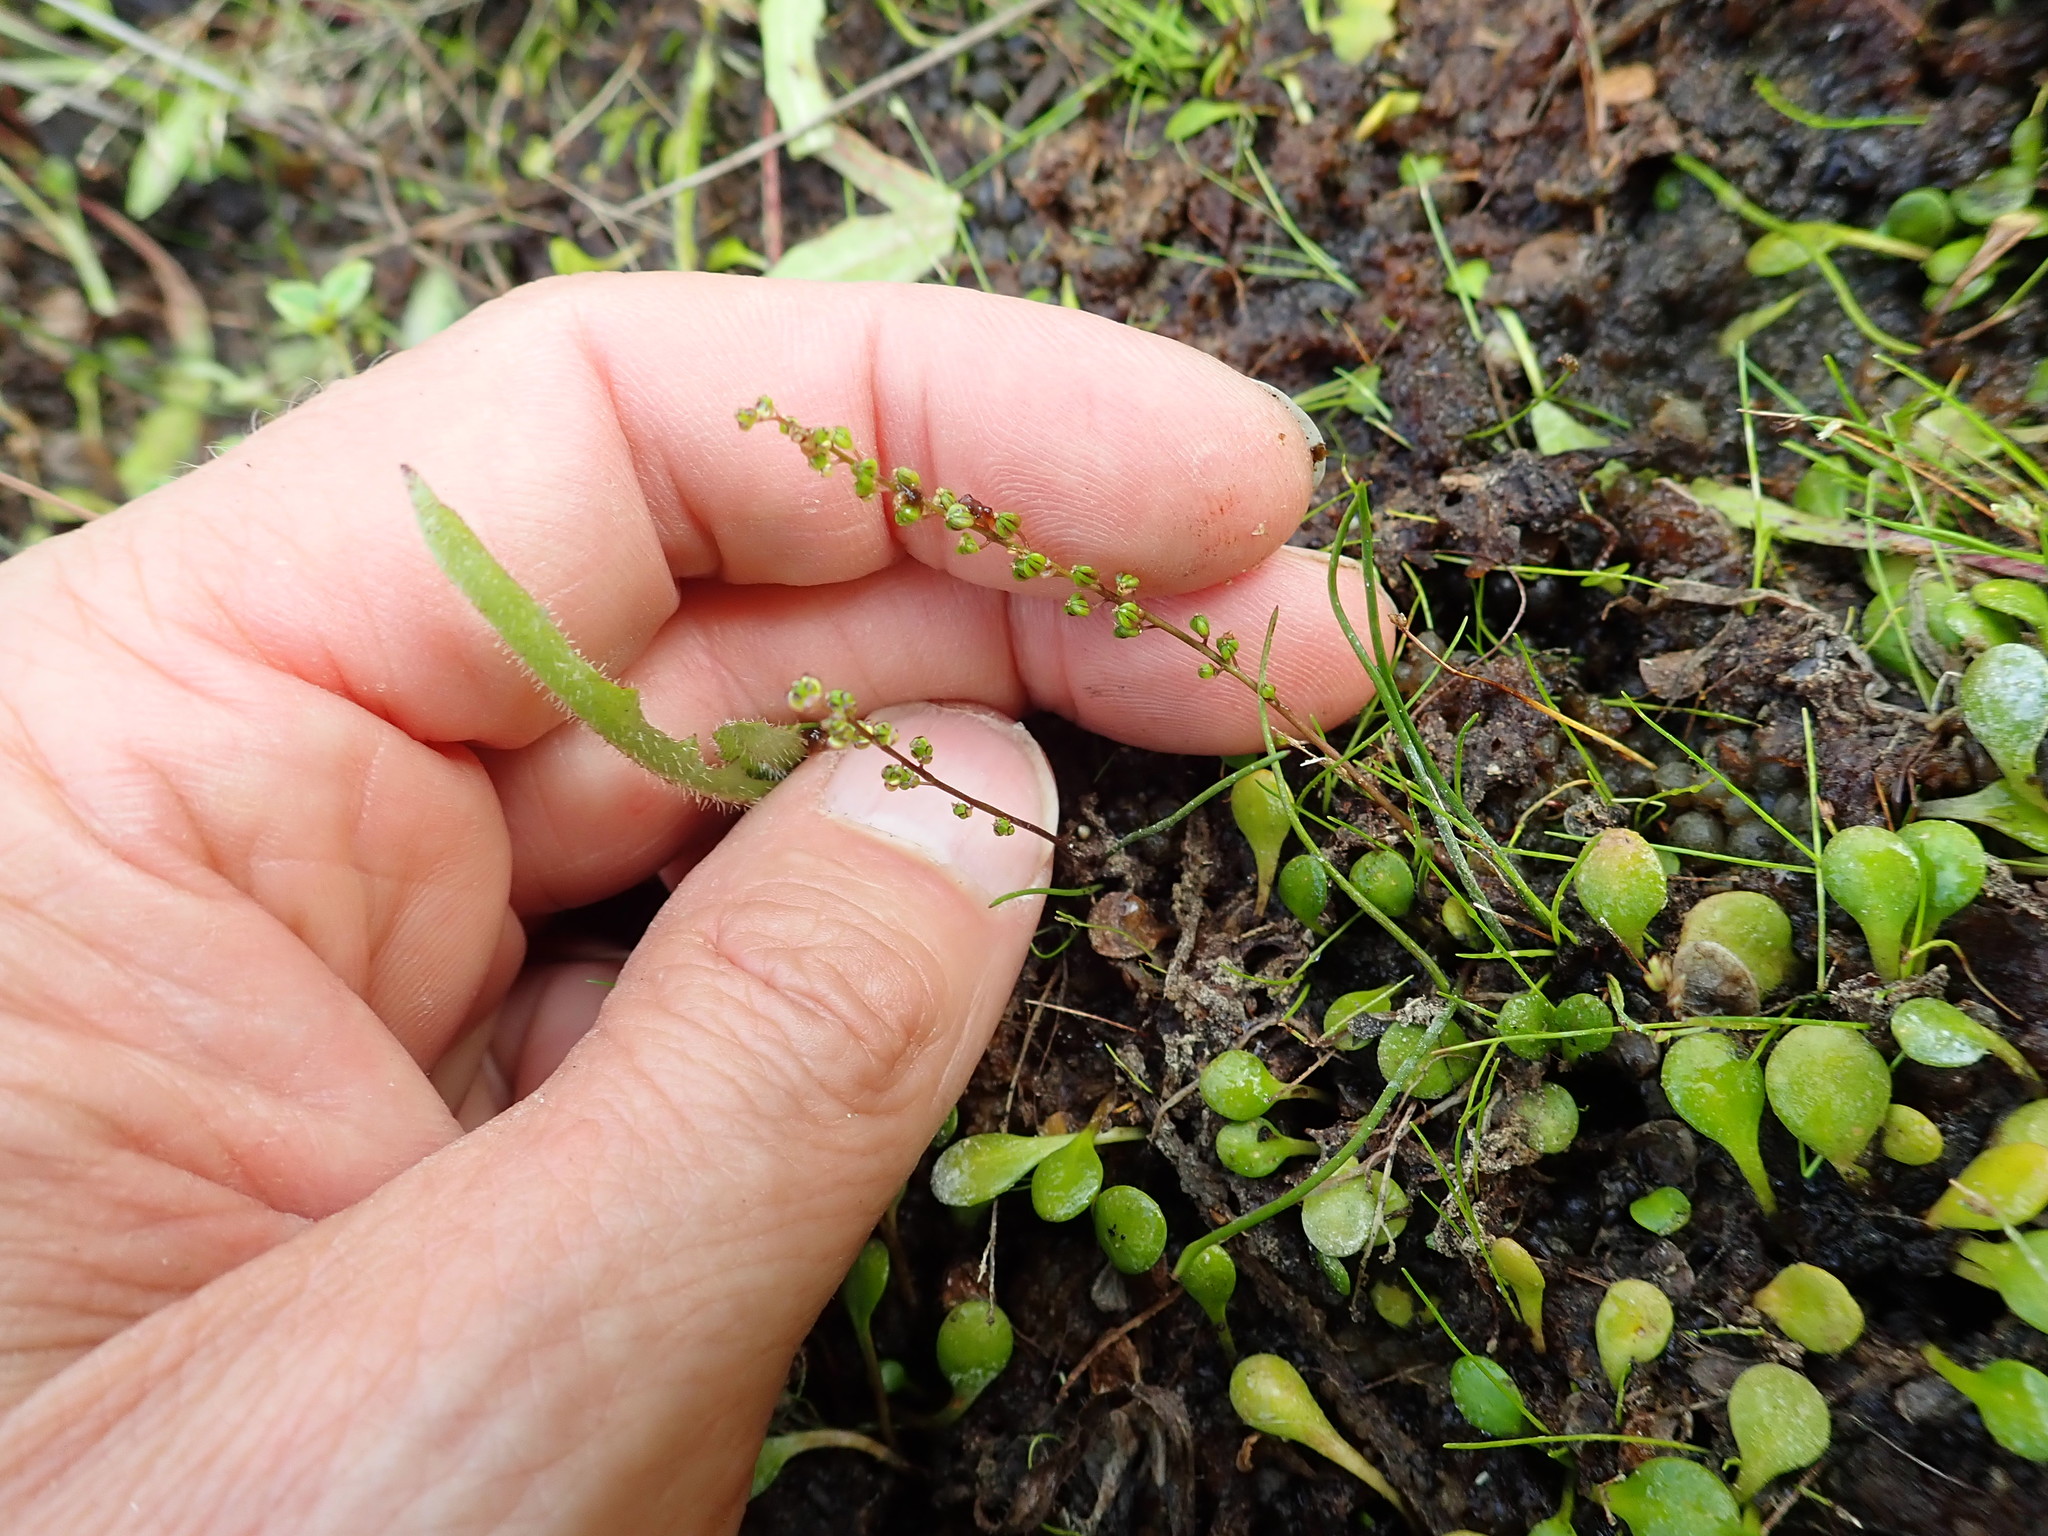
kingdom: Plantae
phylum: Tracheophyta
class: Liliopsida
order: Alismatales
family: Juncaginaceae
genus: Triglochin
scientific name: Triglochin striata
